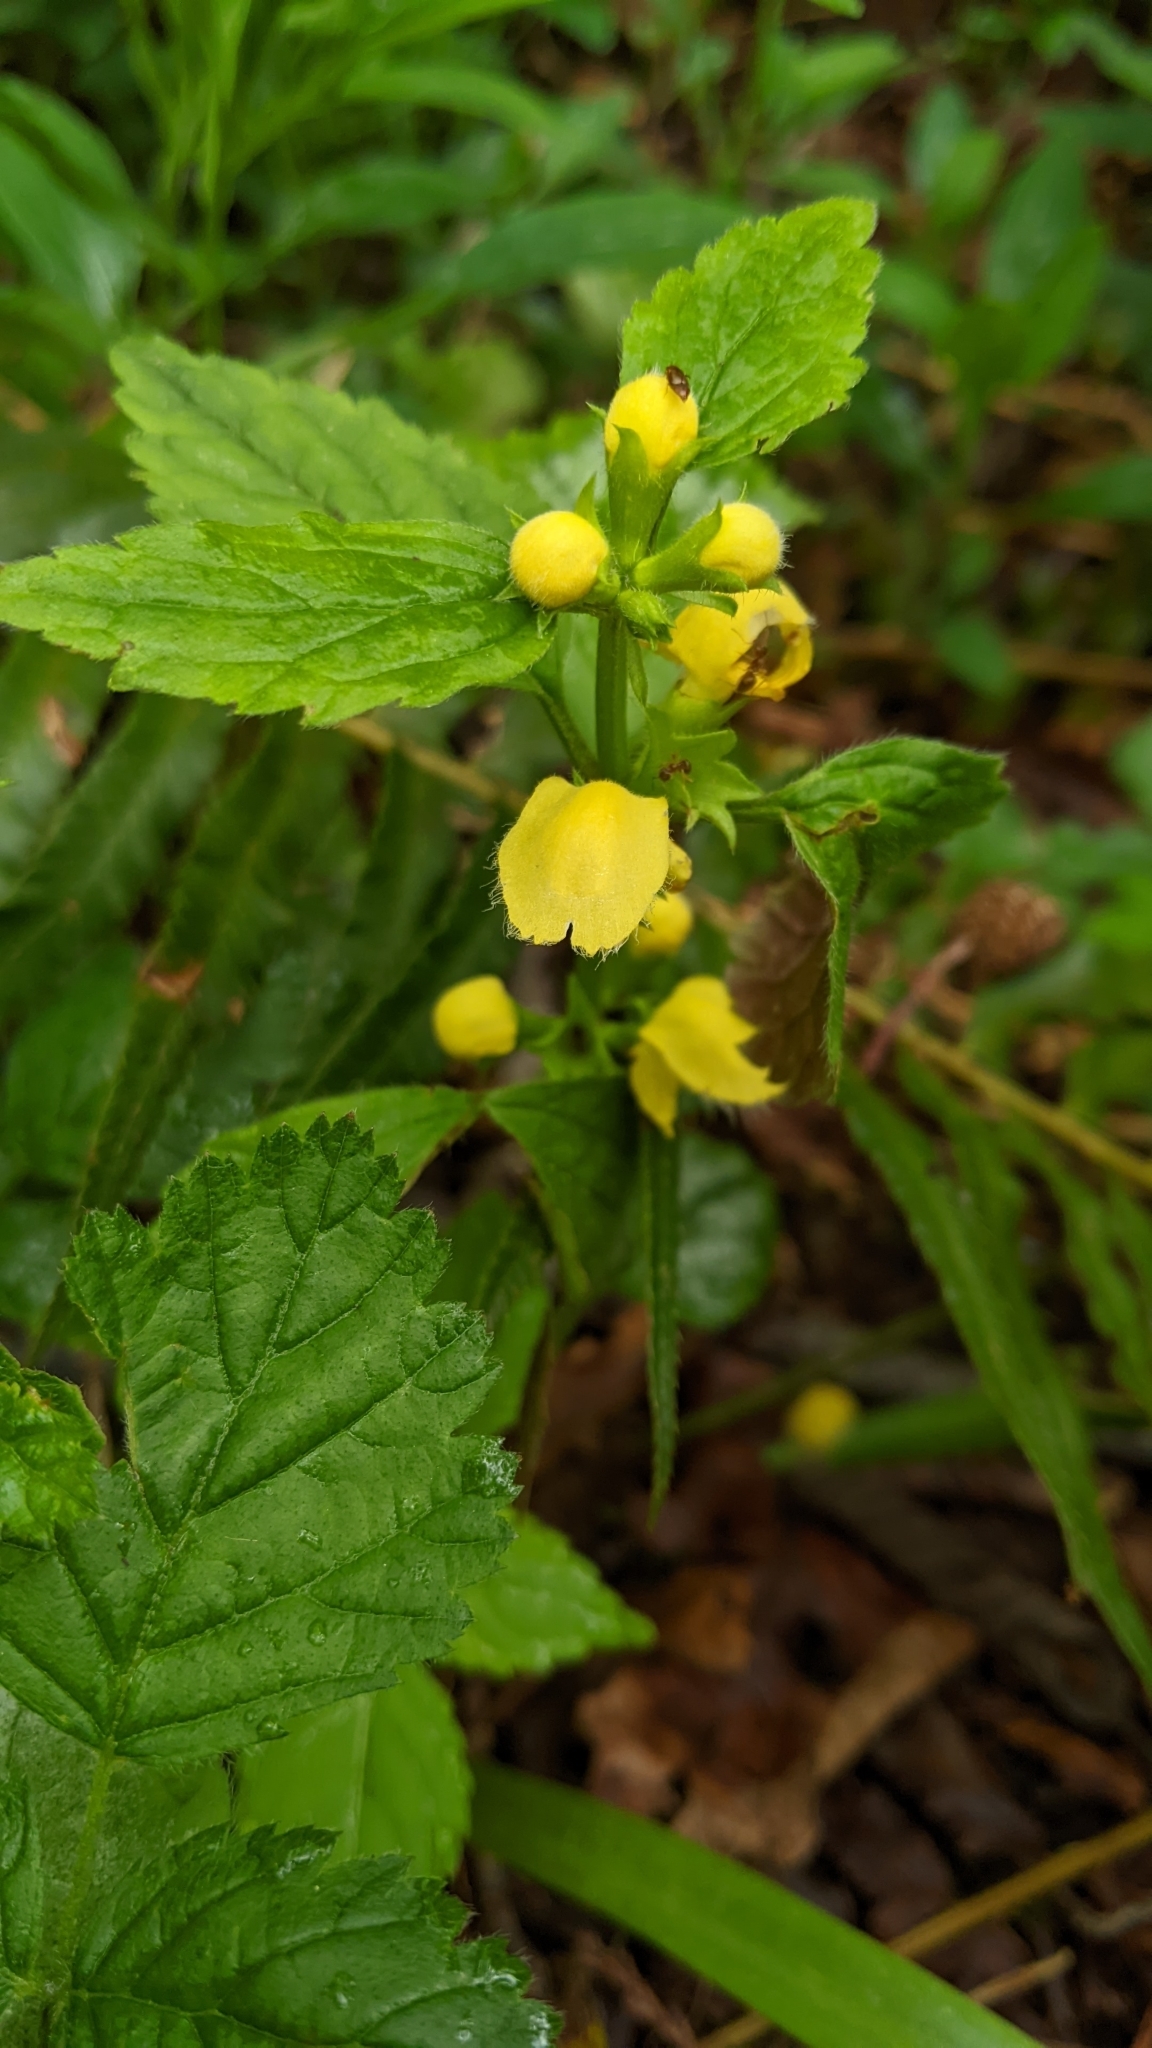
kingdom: Plantae
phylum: Tracheophyta
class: Magnoliopsida
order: Lamiales
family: Lamiaceae
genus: Lamium
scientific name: Lamium galeobdolon
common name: Yellow archangel
